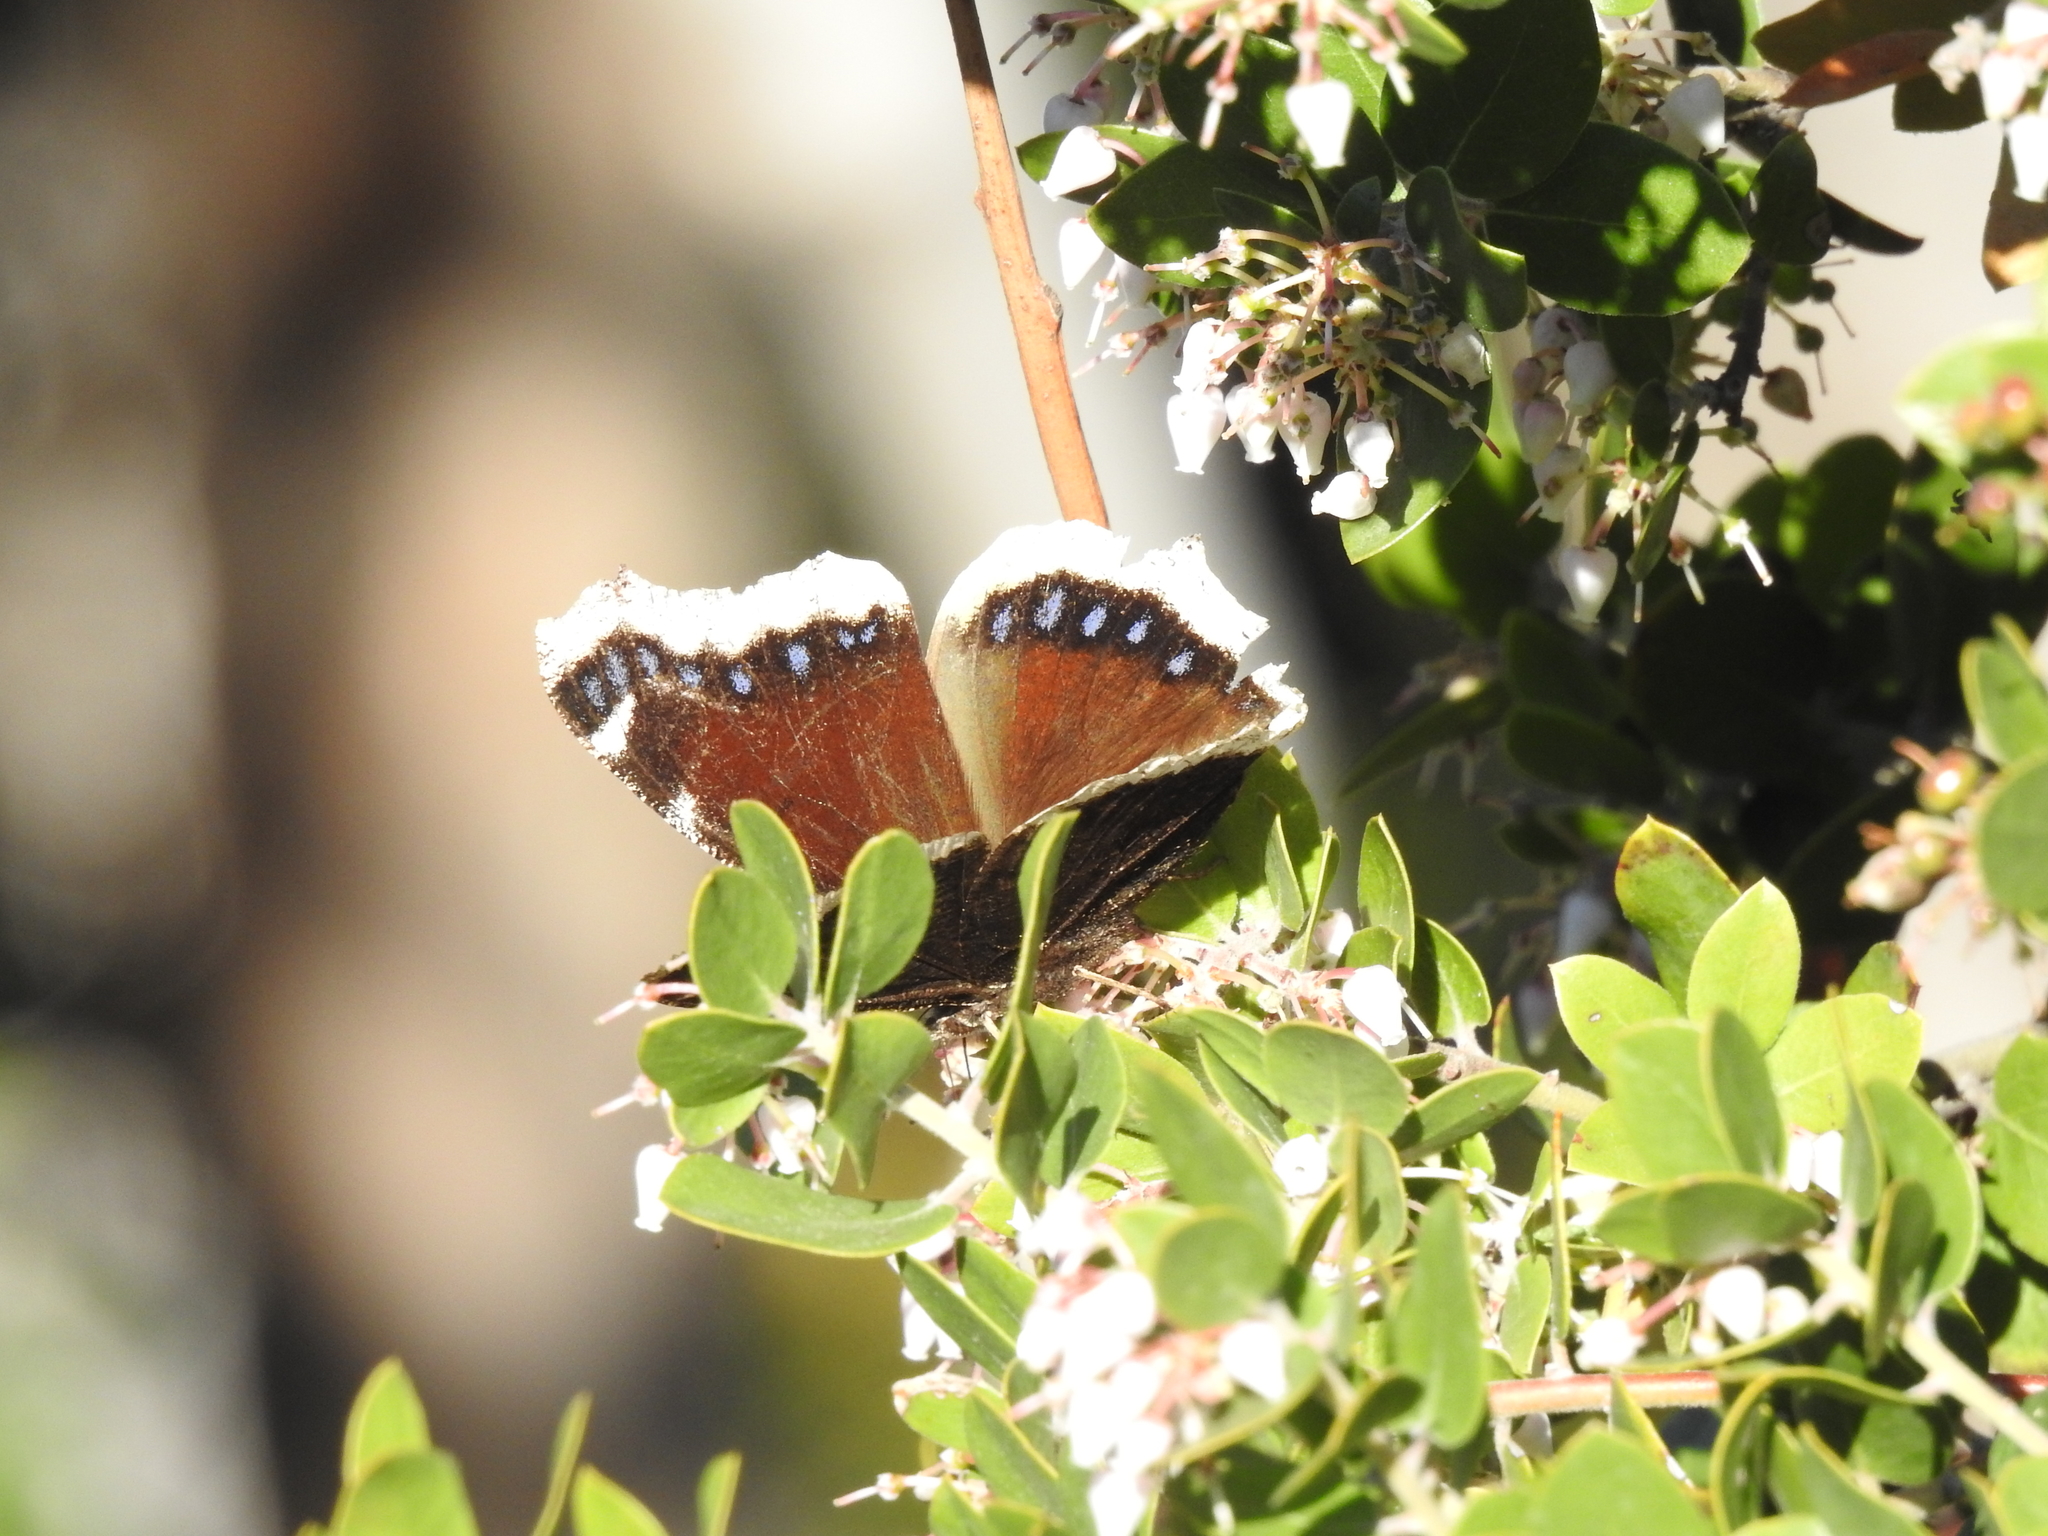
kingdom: Animalia
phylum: Arthropoda
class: Insecta
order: Lepidoptera
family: Nymphalidae
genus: Nymphalis
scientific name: Nymphalis antiopa
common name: Camberwell beauty
